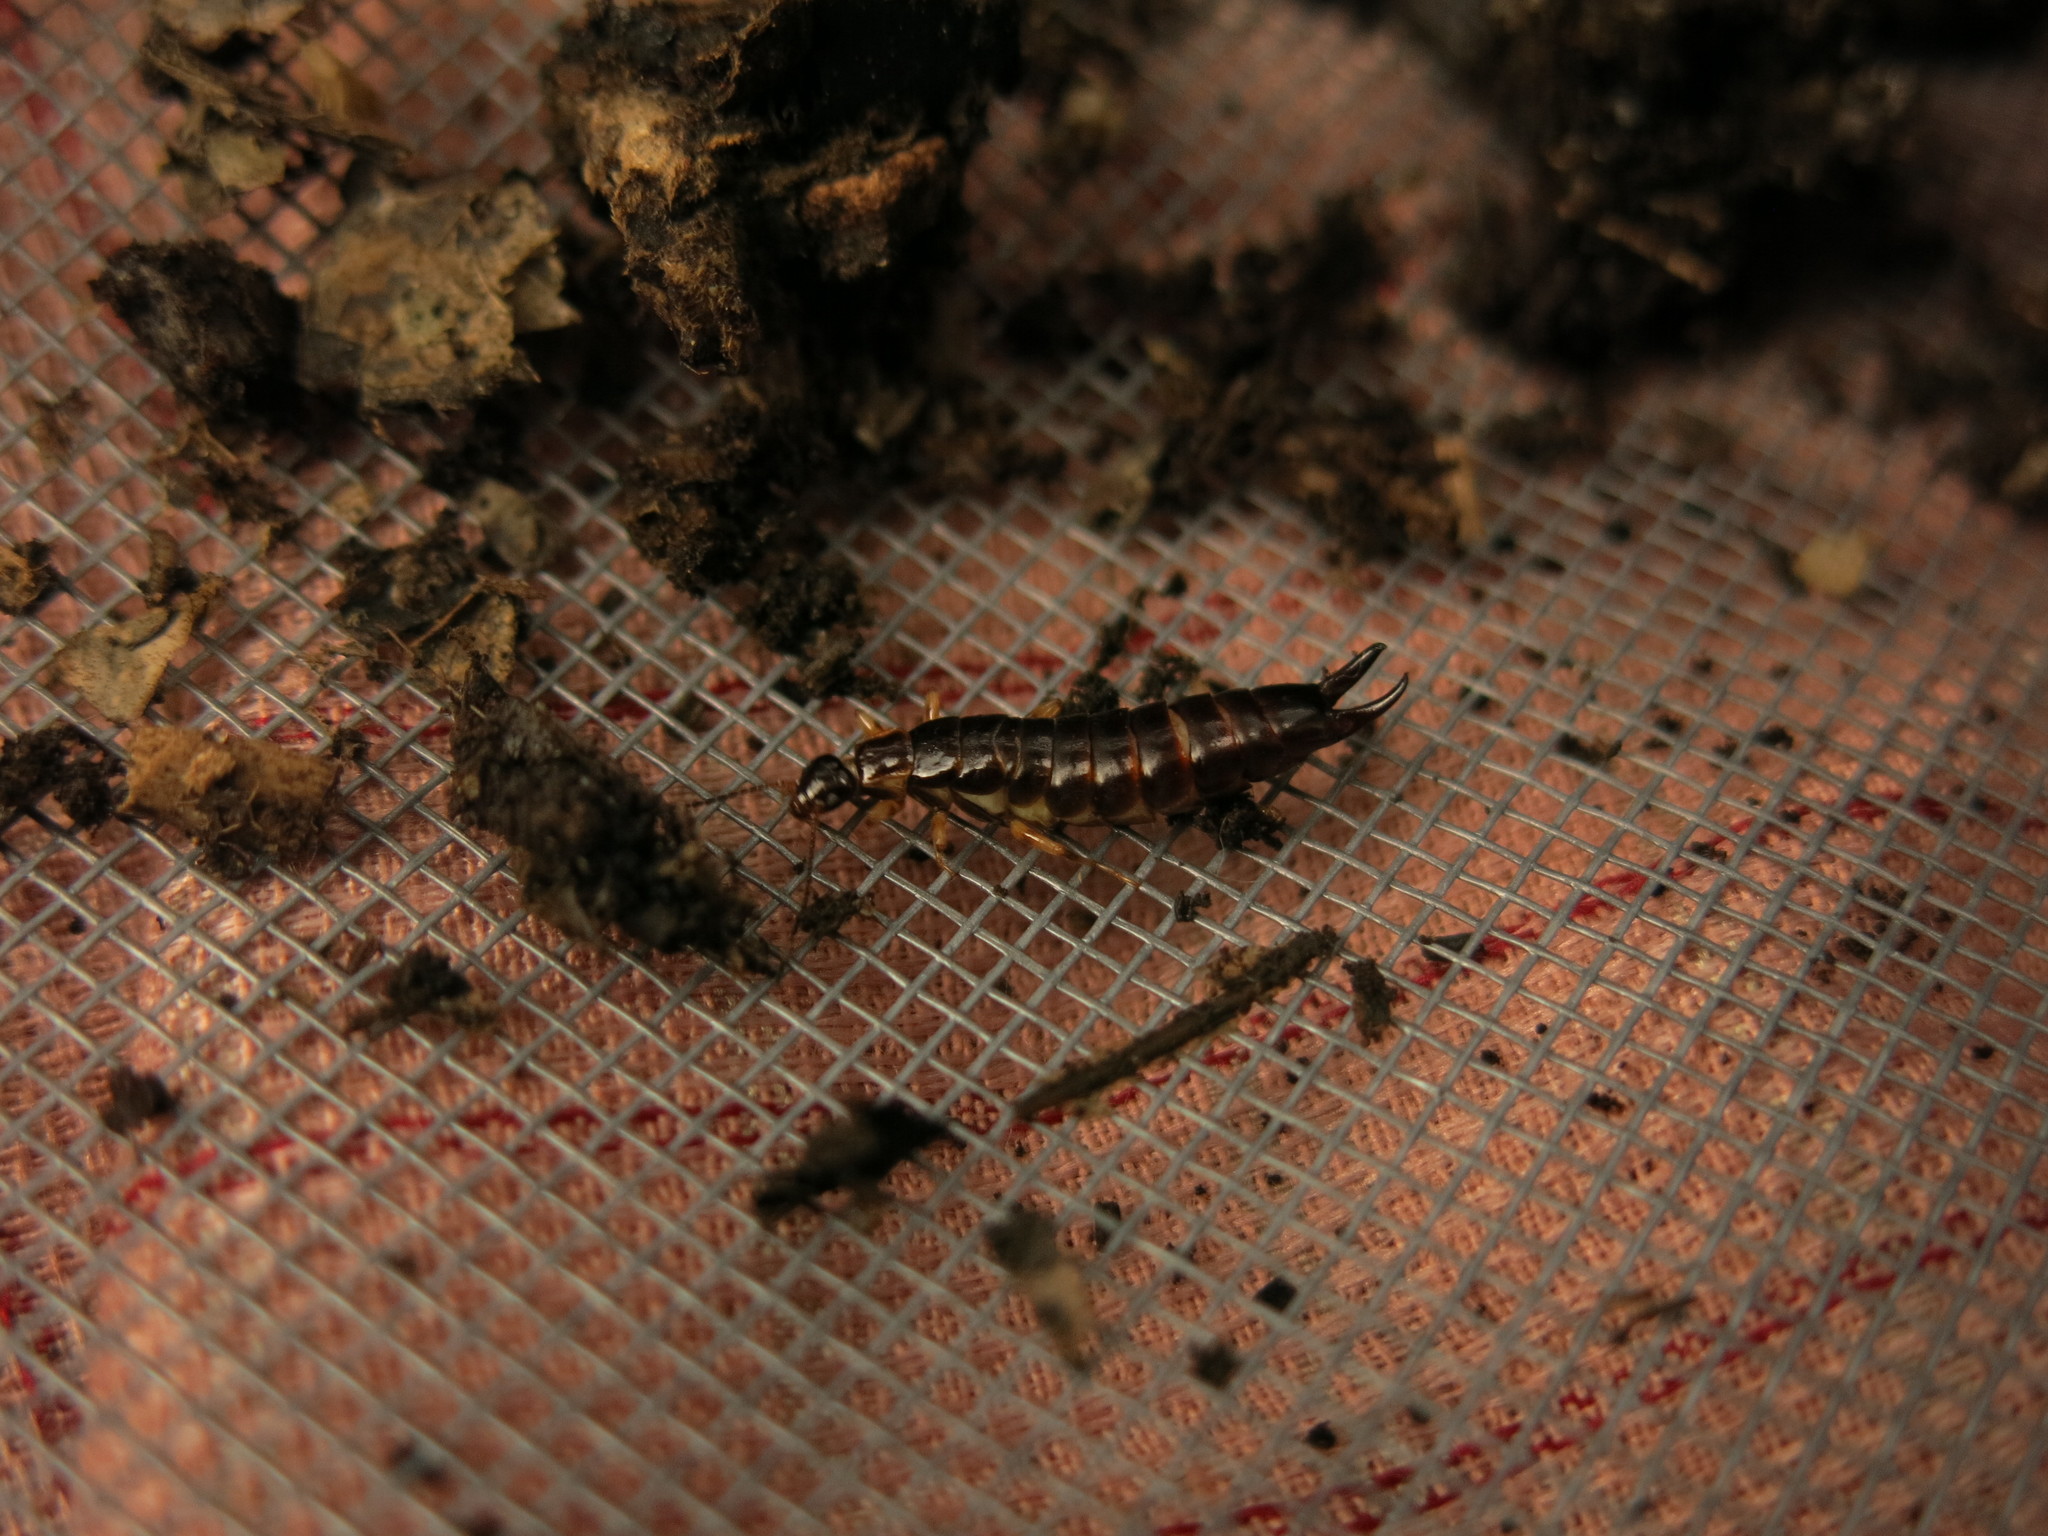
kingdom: Animalia
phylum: Arthropoda
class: Insecta
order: Dermaptera
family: Anisolabididae
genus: Euborellia
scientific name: Euborellia annulipes
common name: Ringlegged earwig
